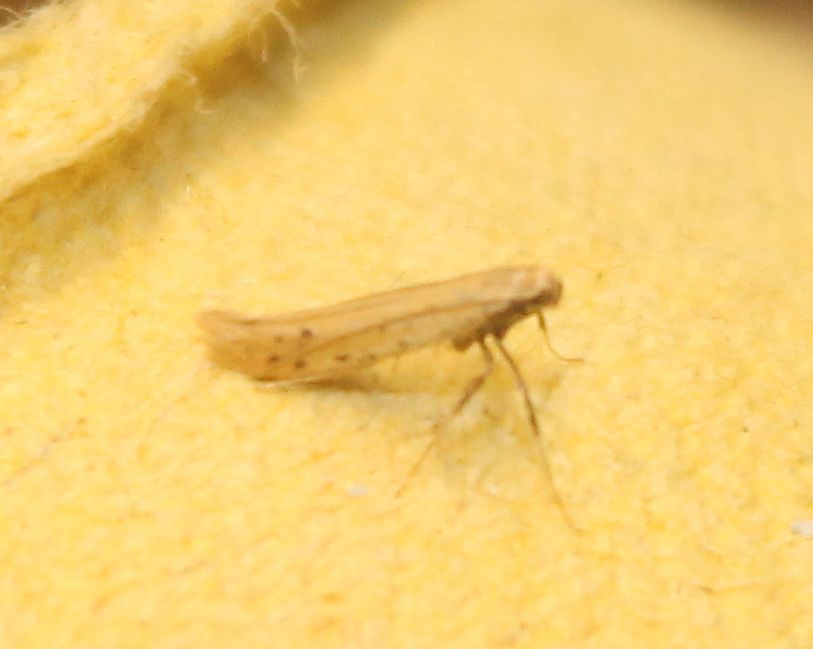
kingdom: Animalia
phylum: Arthropoda
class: Insecta
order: Lepidoptera
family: Gracillariidae
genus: Aspilapteryx
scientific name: Aspilapteryx tringipennella
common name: Ribwort slender
